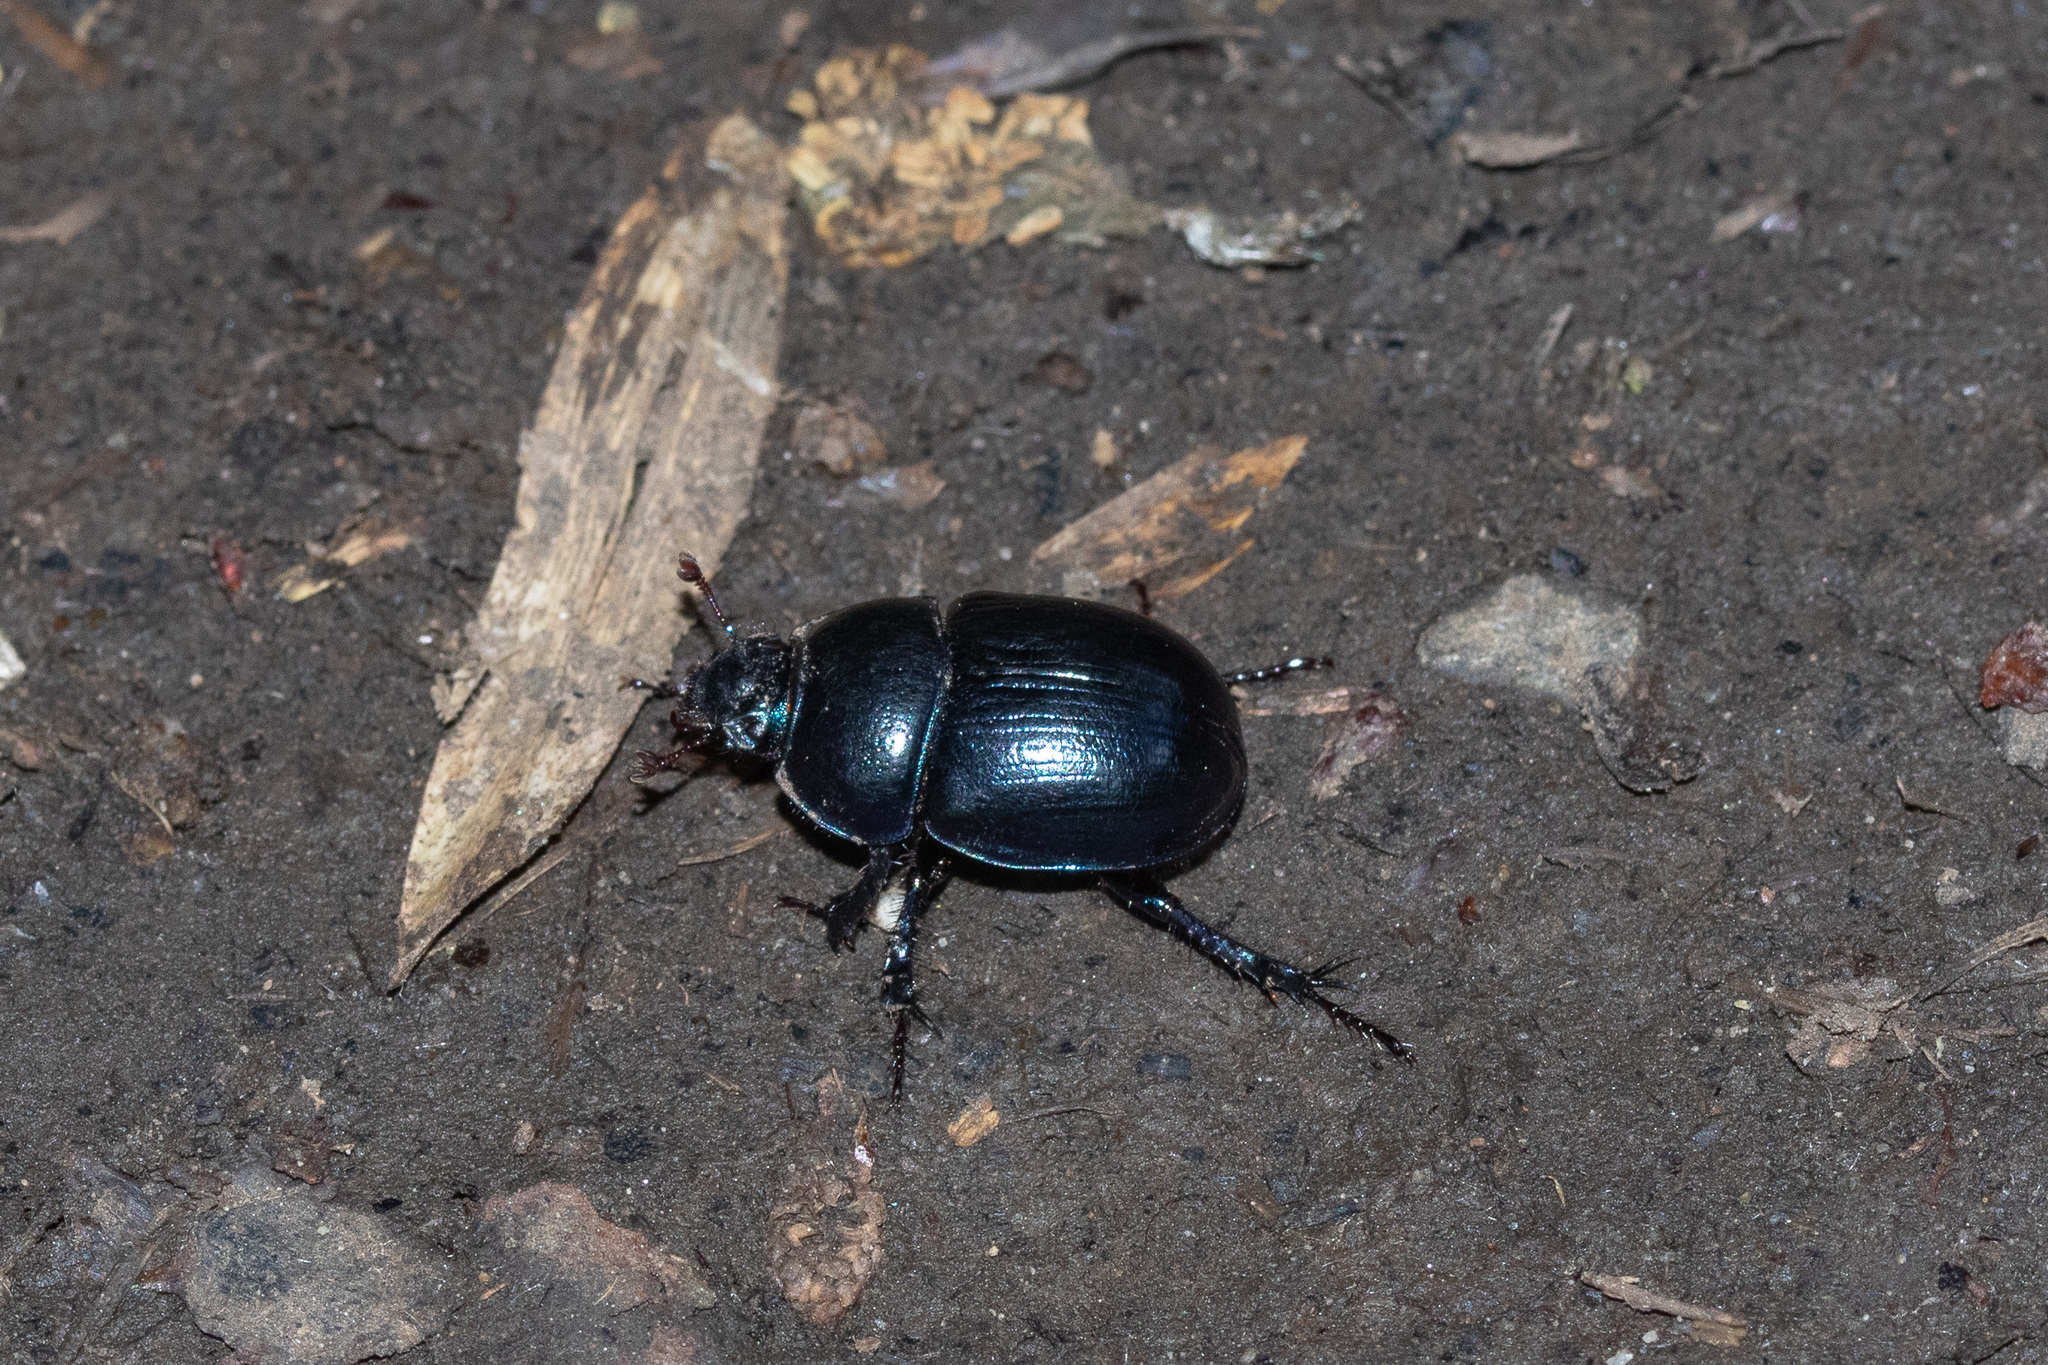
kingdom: Animalia
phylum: Arthropoda
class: Insecta
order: Coleoptera
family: Geotrupidae
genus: Anoplotrupes
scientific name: Anoplotrupes stercorosus
